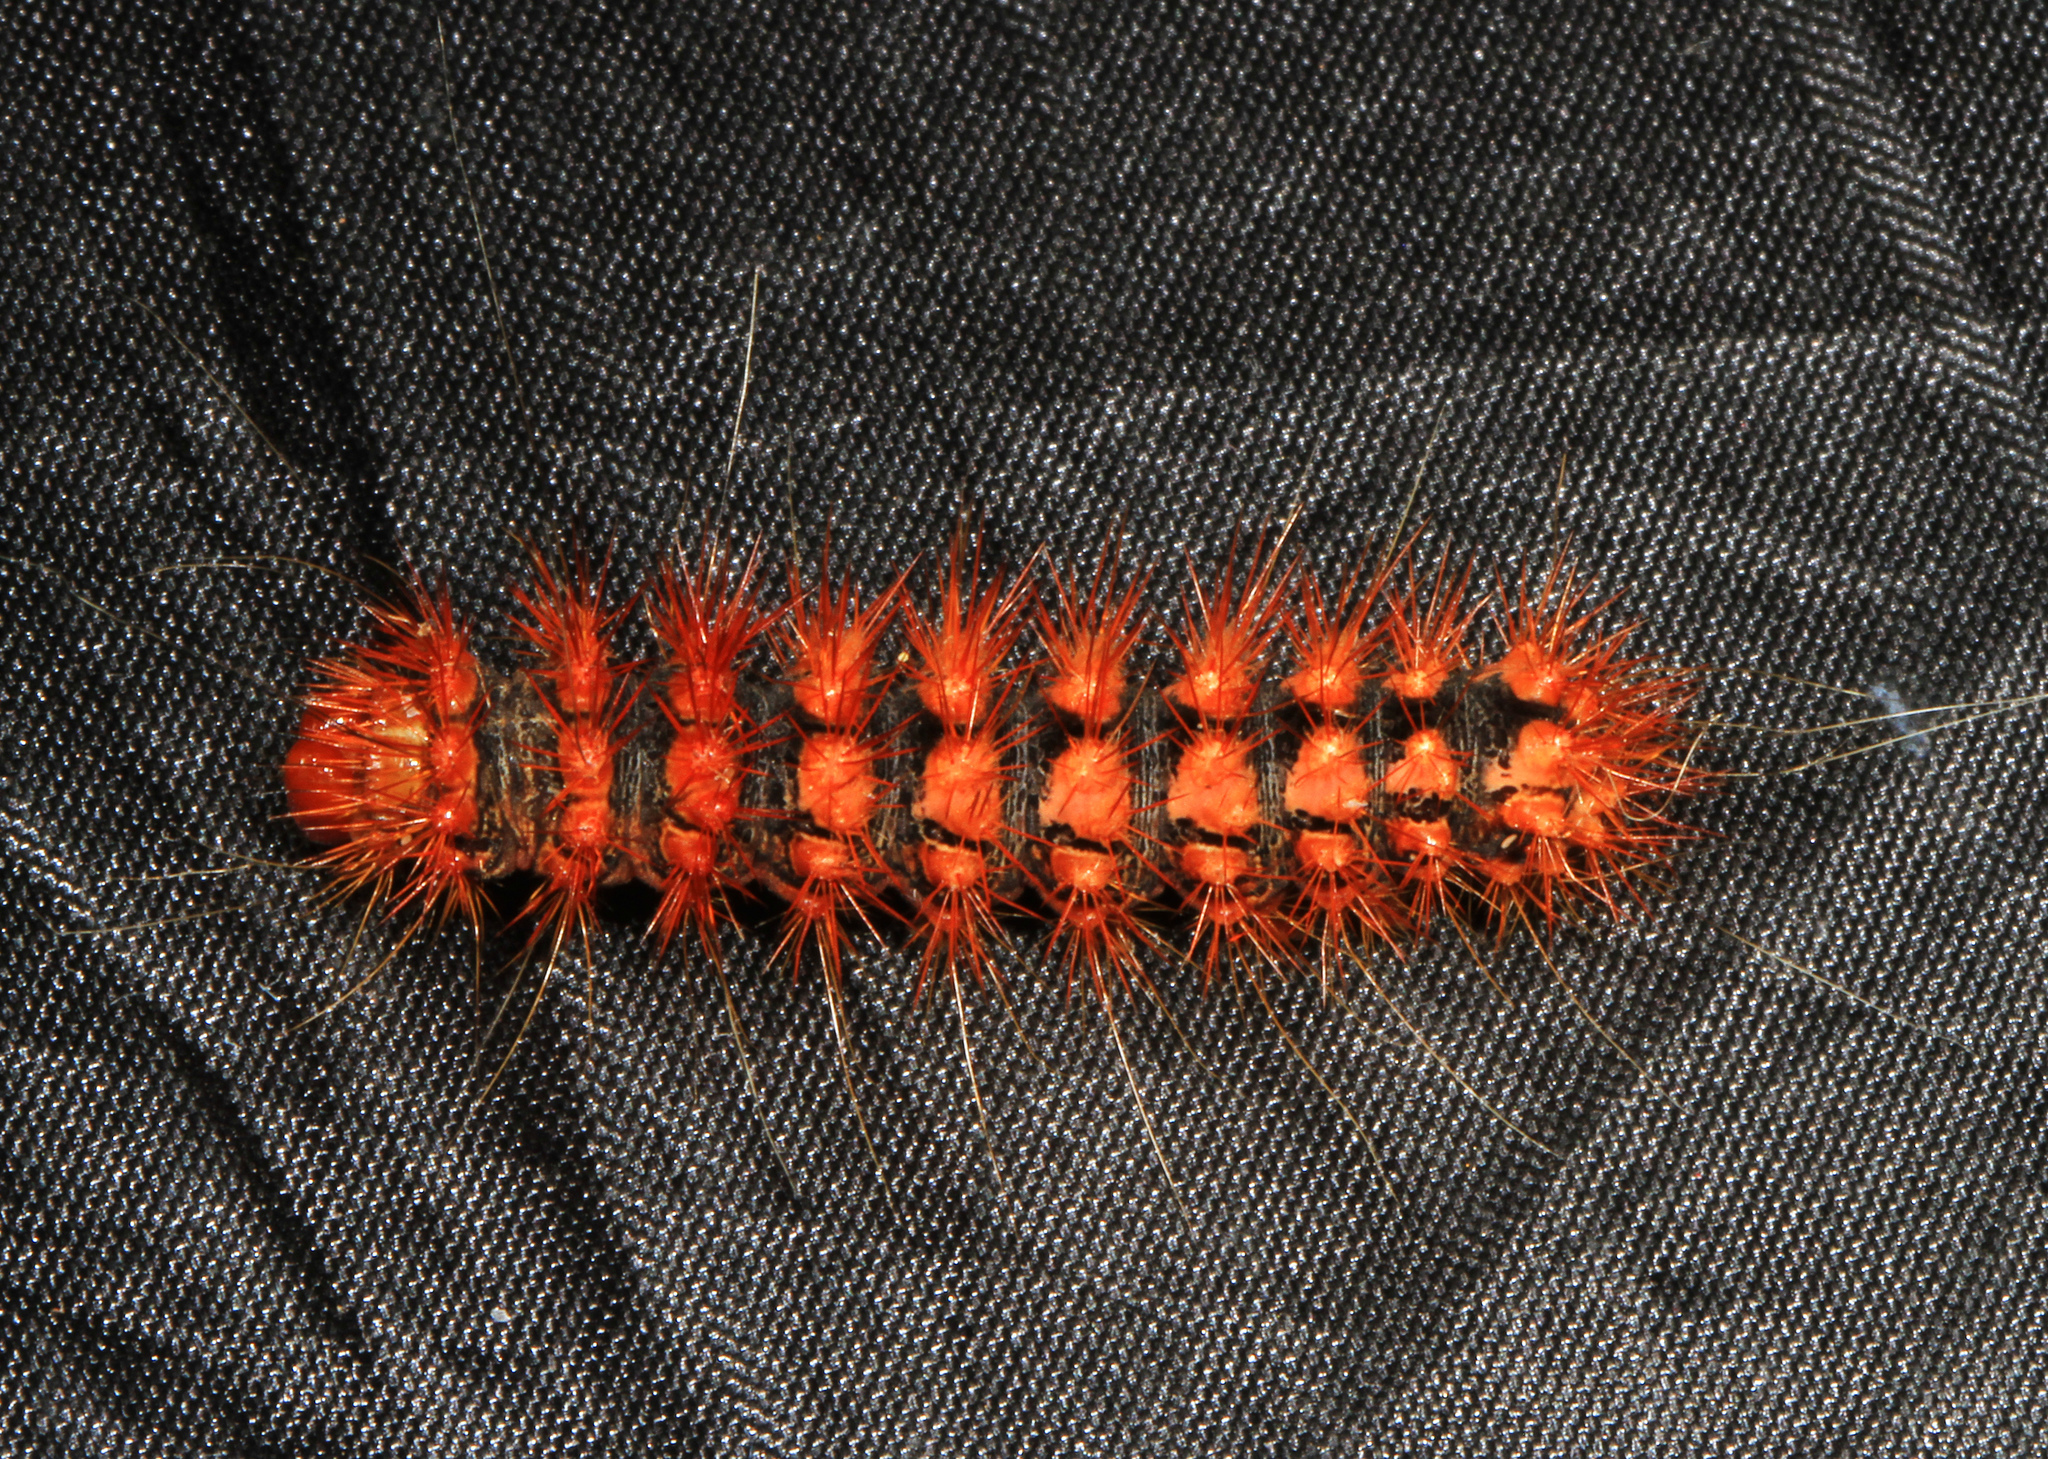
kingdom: Animalia
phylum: Arthropoda
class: Insecta
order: Lepidoptera
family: Noctuidae
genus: Acronicta
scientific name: Acronicta longa
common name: Long-winged dagger
